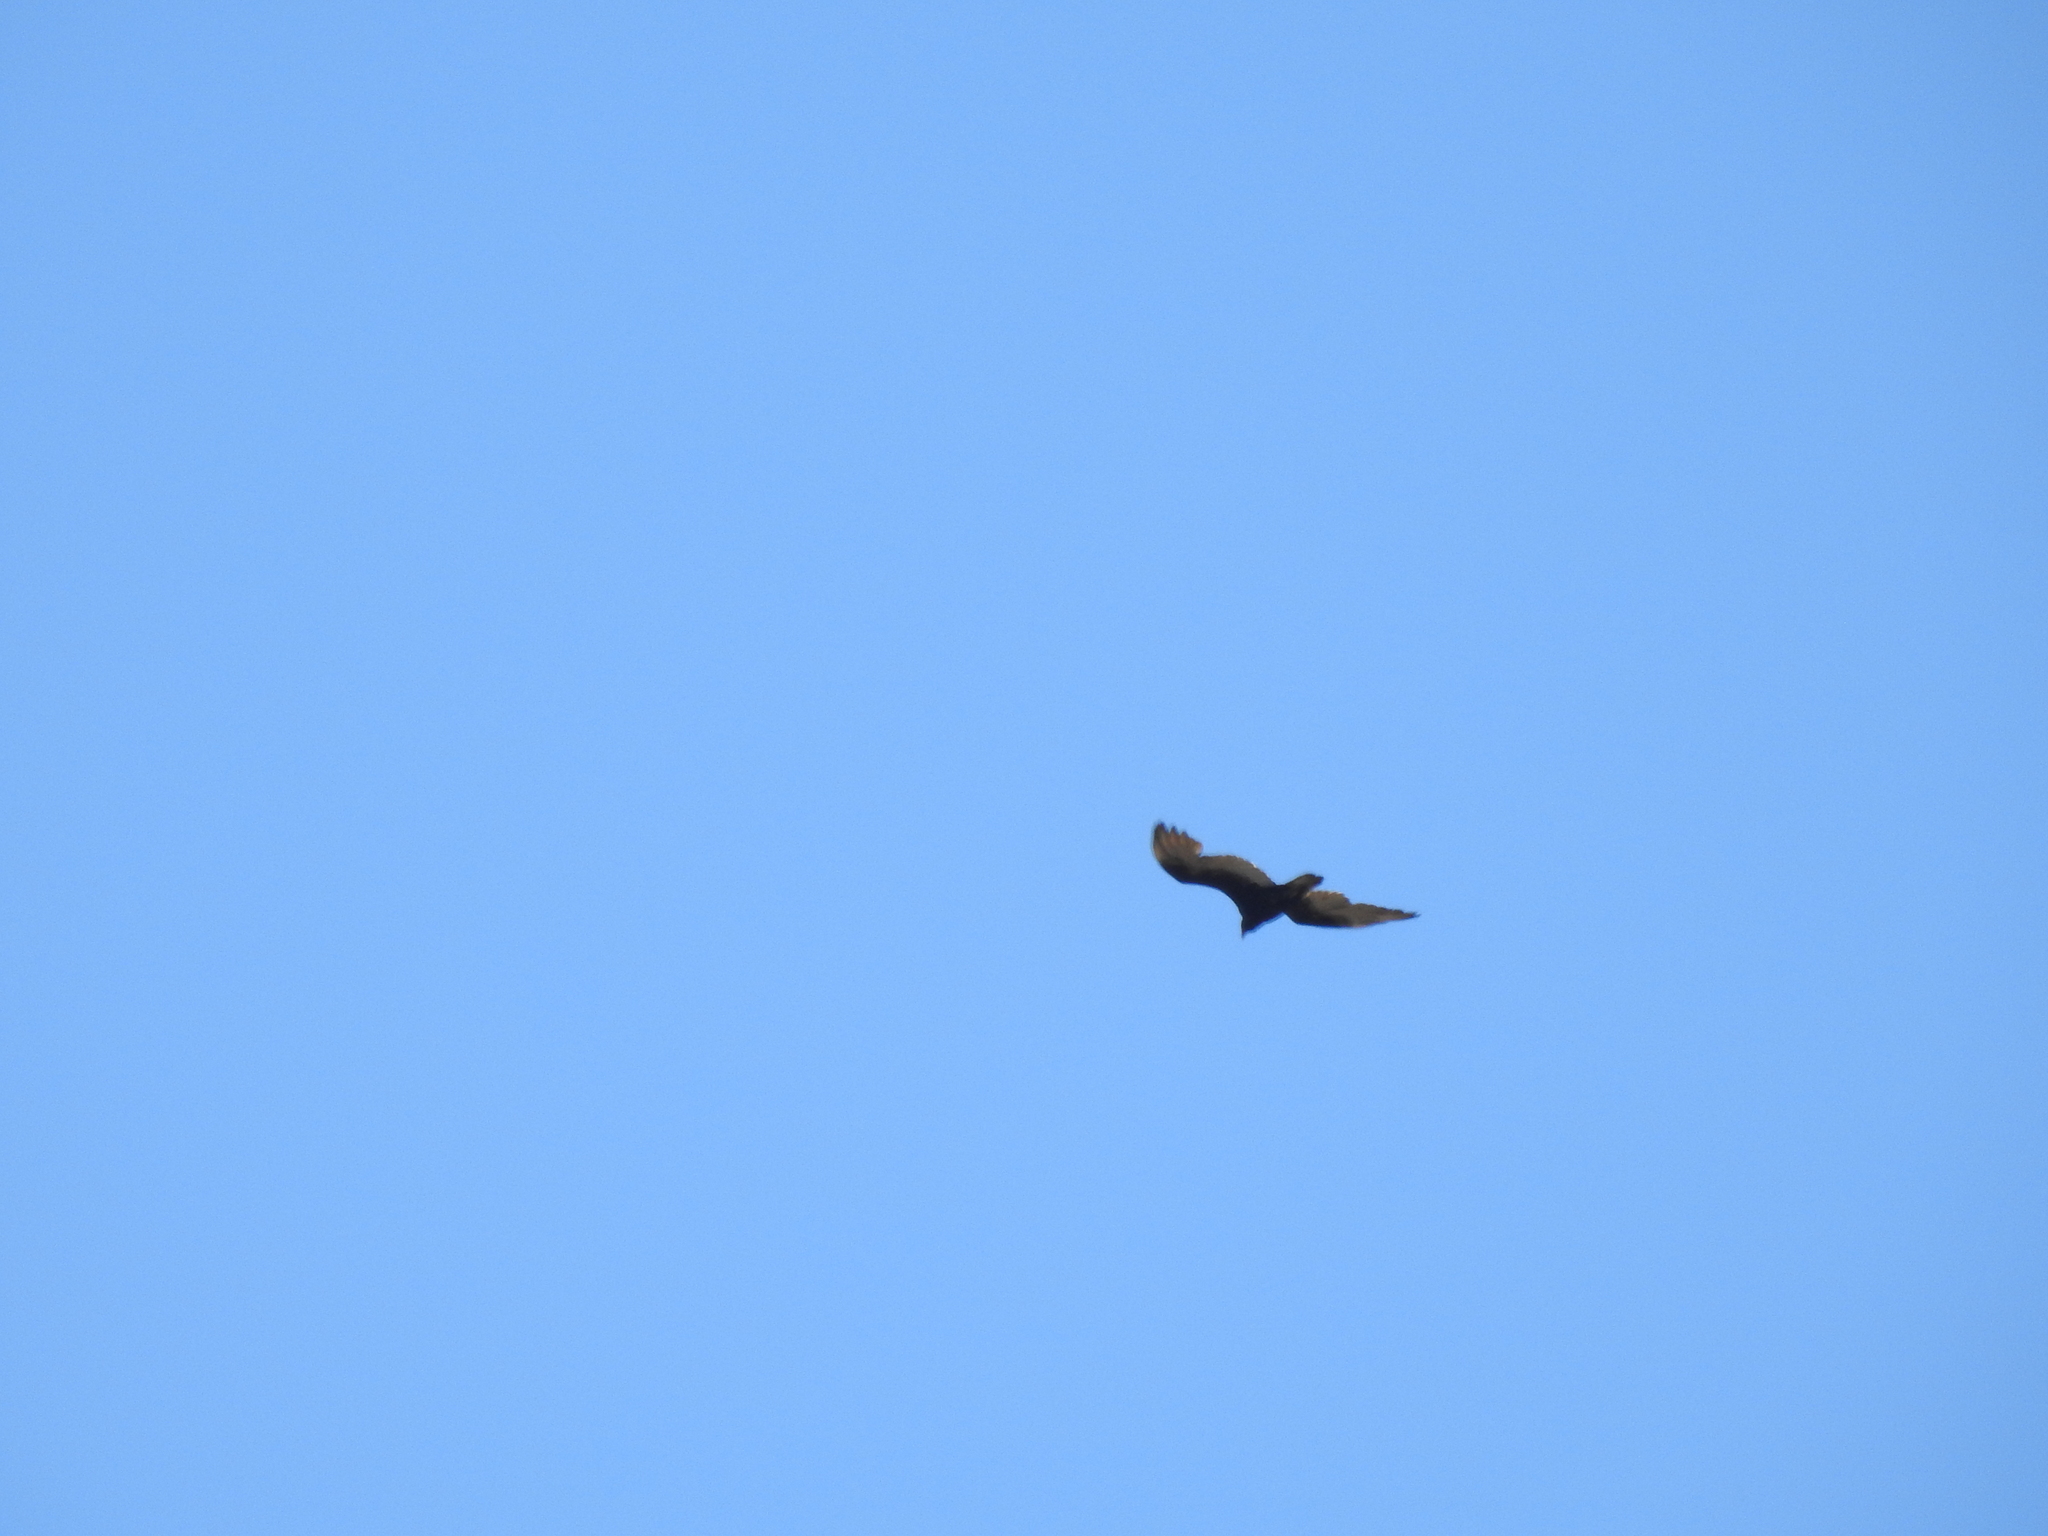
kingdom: Animalia
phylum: Chordata
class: Aves
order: Accipitriformes
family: Cathartidae
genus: Cathartes
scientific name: Cathartes aura
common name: Turkey vulture
